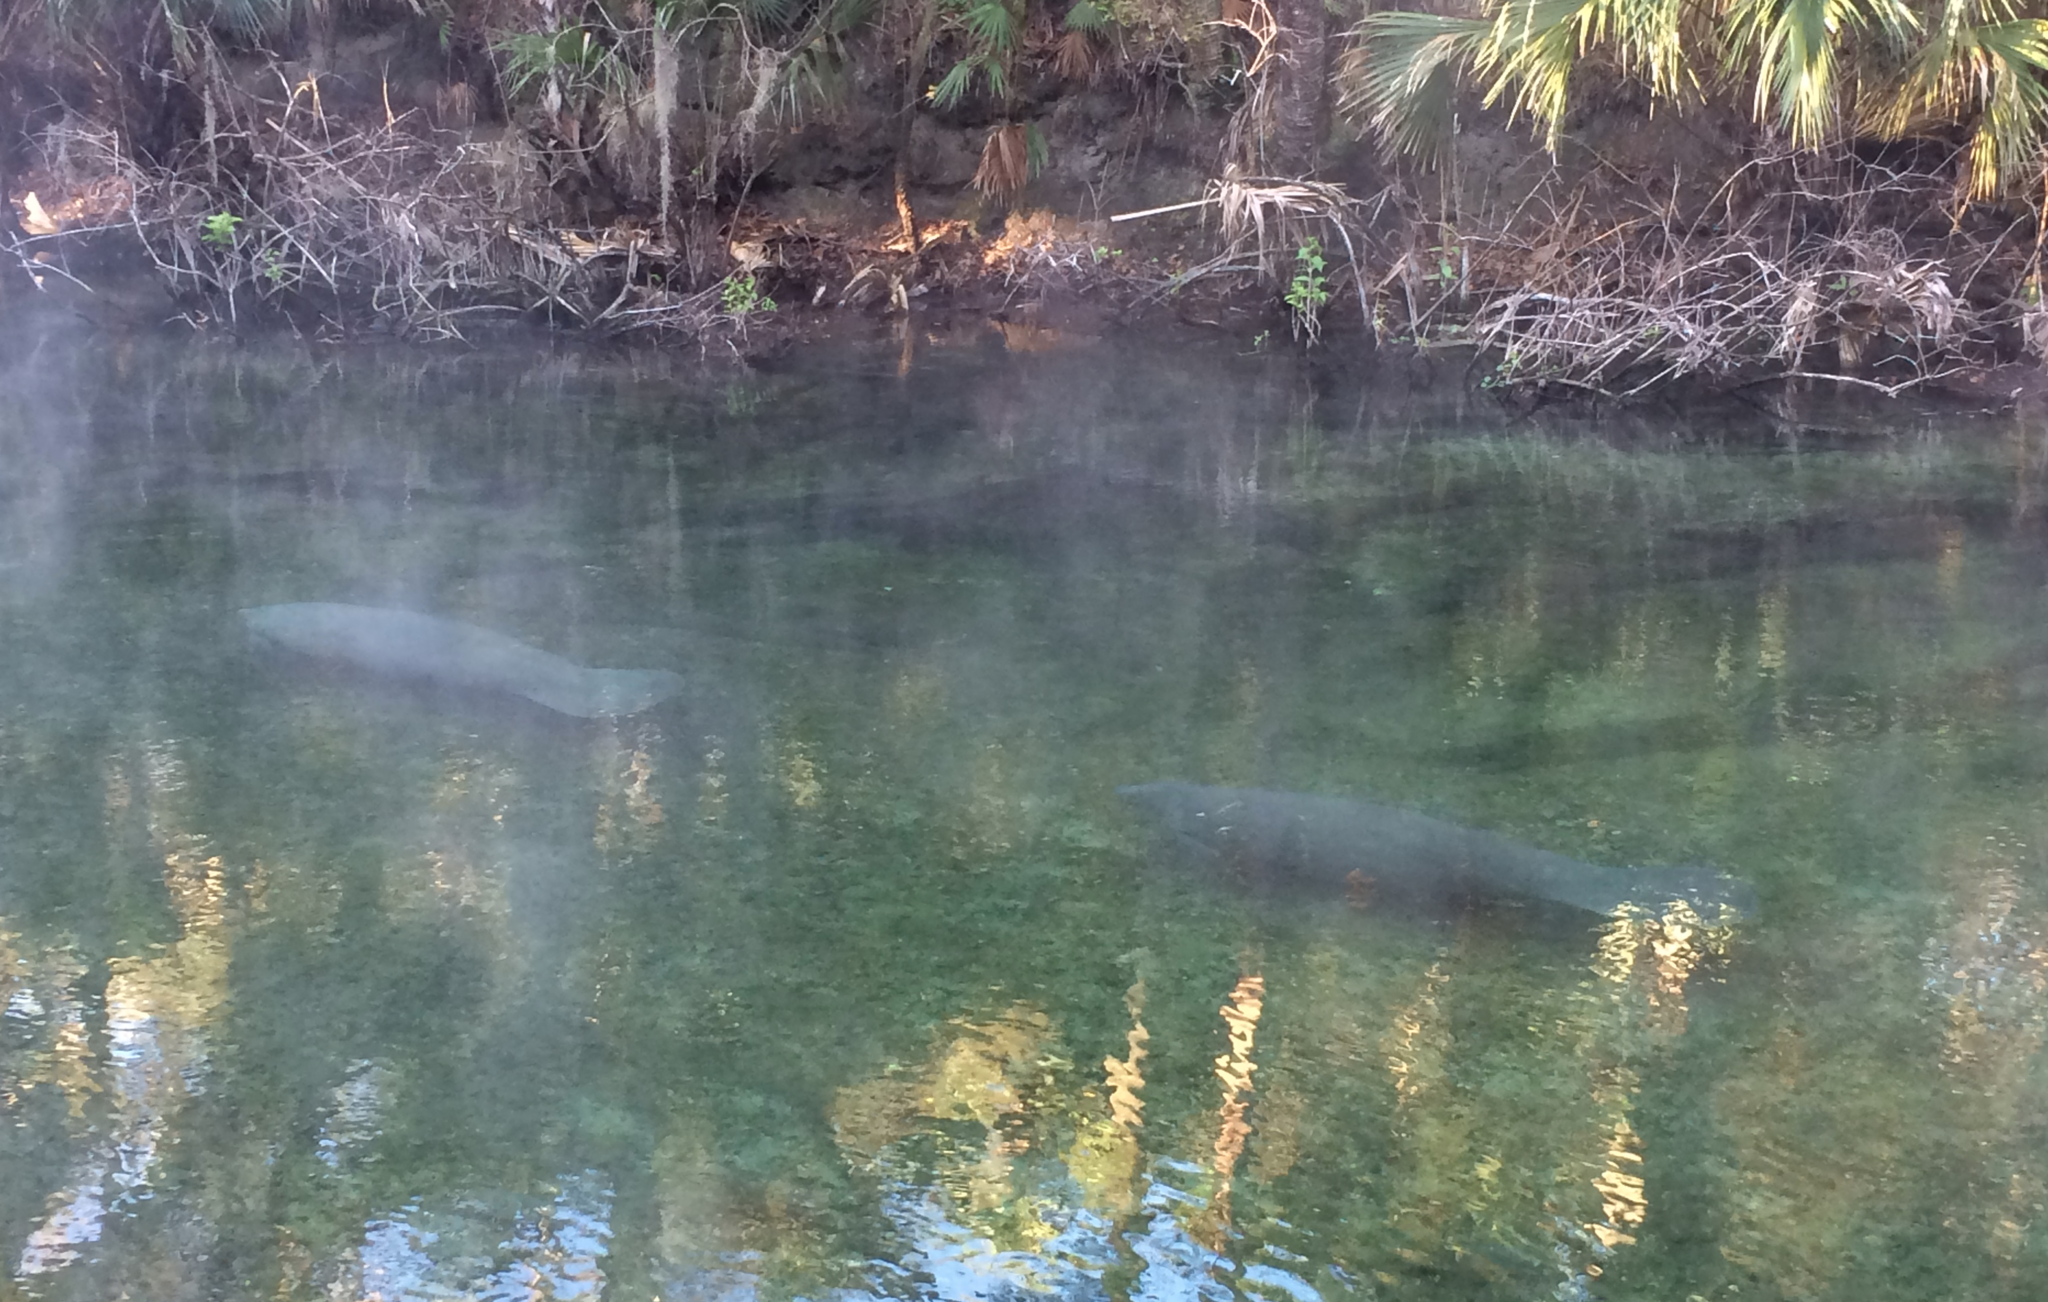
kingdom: Animalia
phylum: Chordata
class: Mammalia
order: Sirenia
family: Trichechidae
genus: Trichechus
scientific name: Trichechus manatus
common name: West indian manatee
